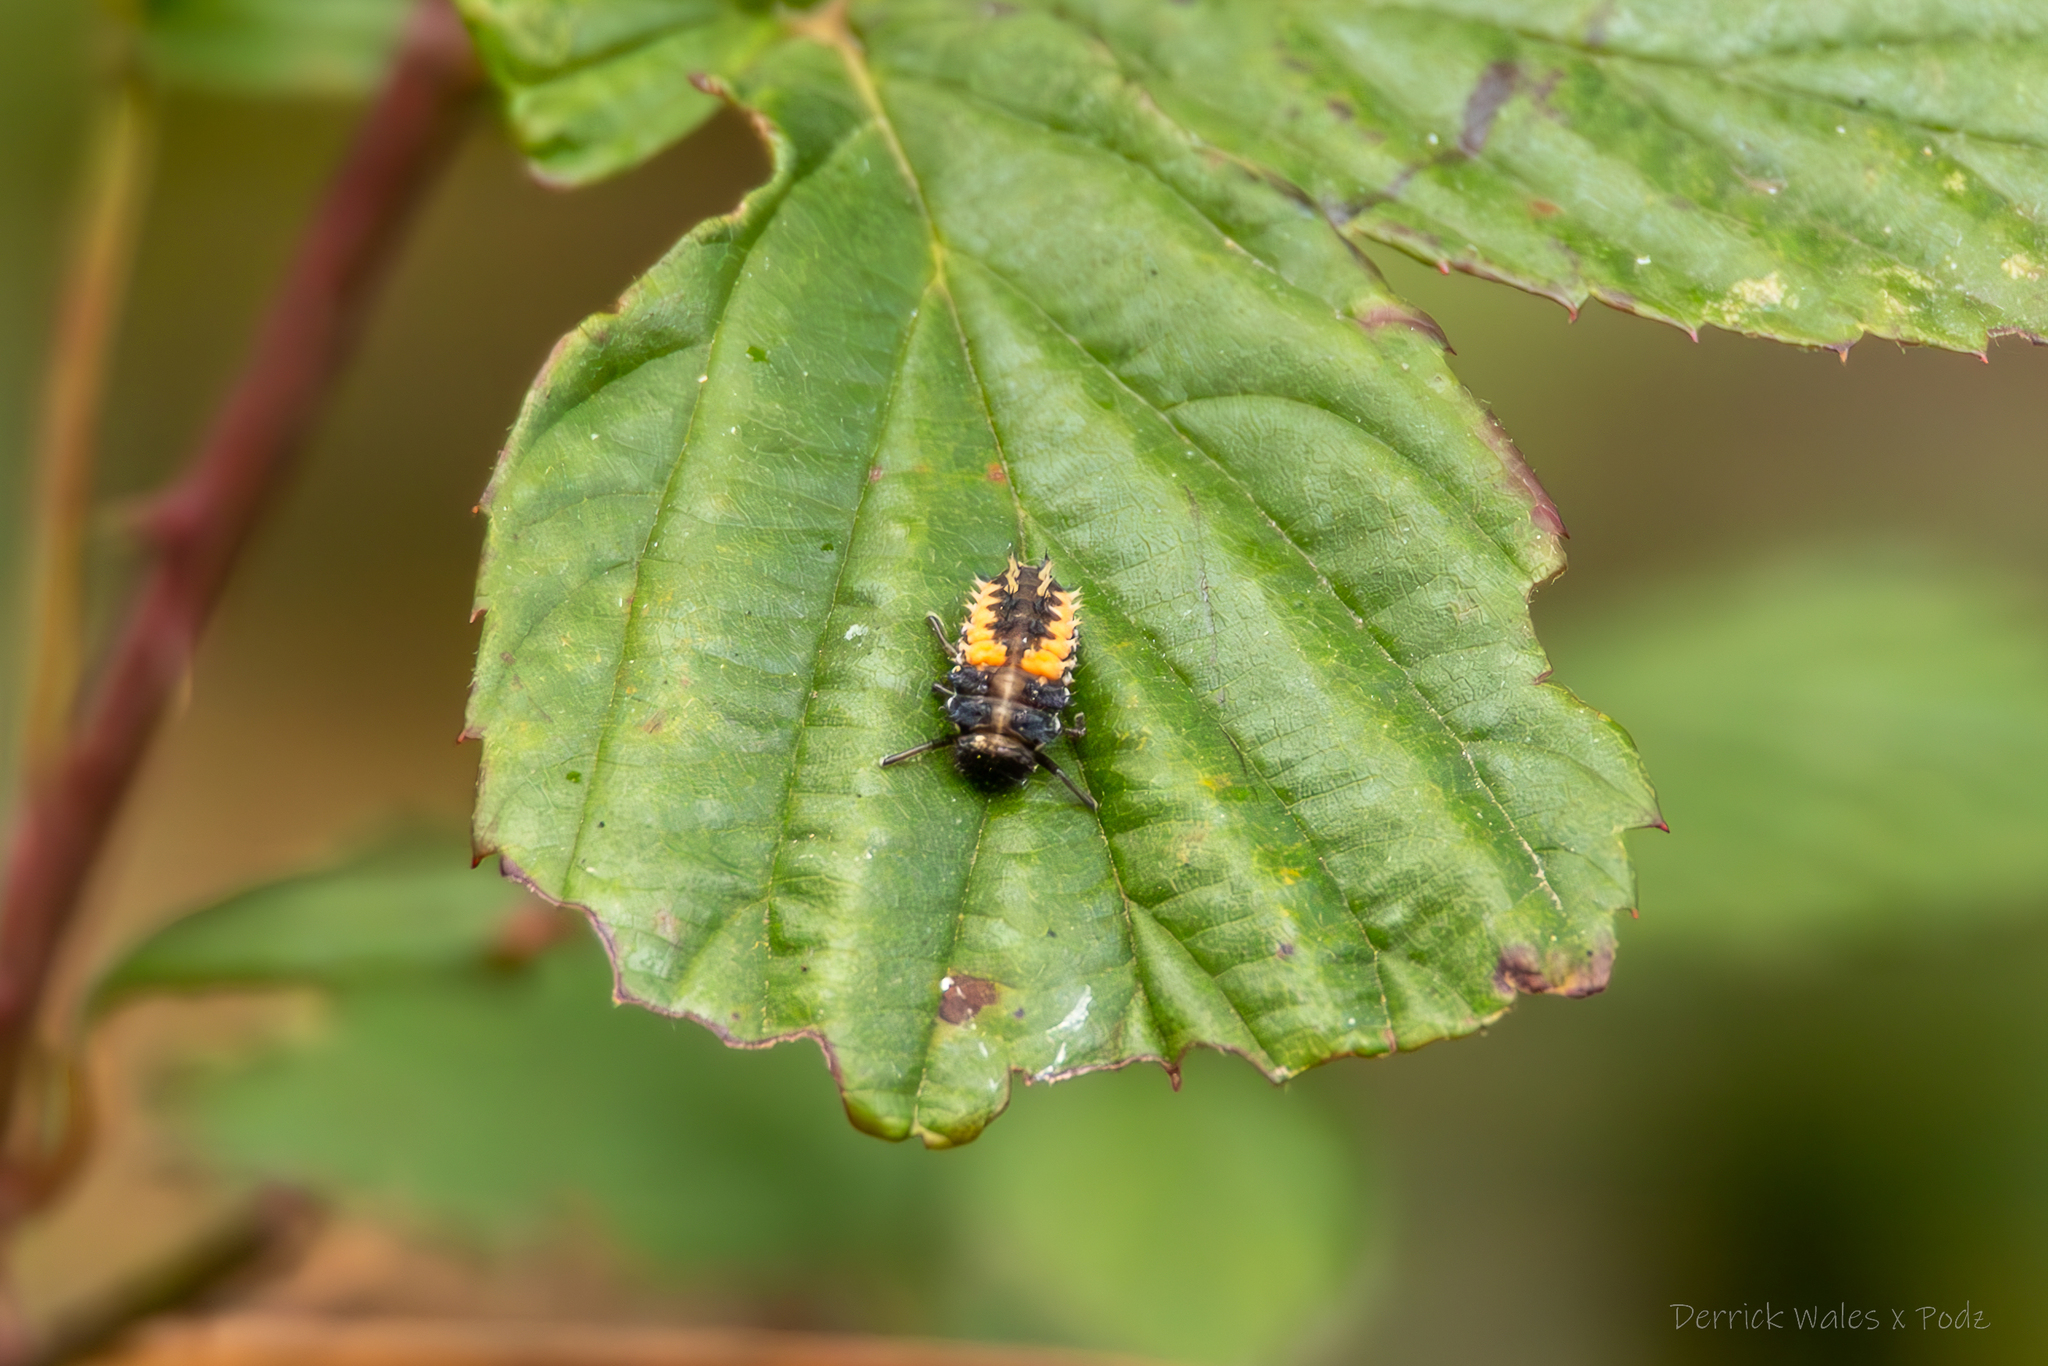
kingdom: Animalia
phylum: Arthropoda
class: Insecta
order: Coleoptera
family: Coccinellidae
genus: Harmonia
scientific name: Harmonia axyridis
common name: Harlequin ladybird
